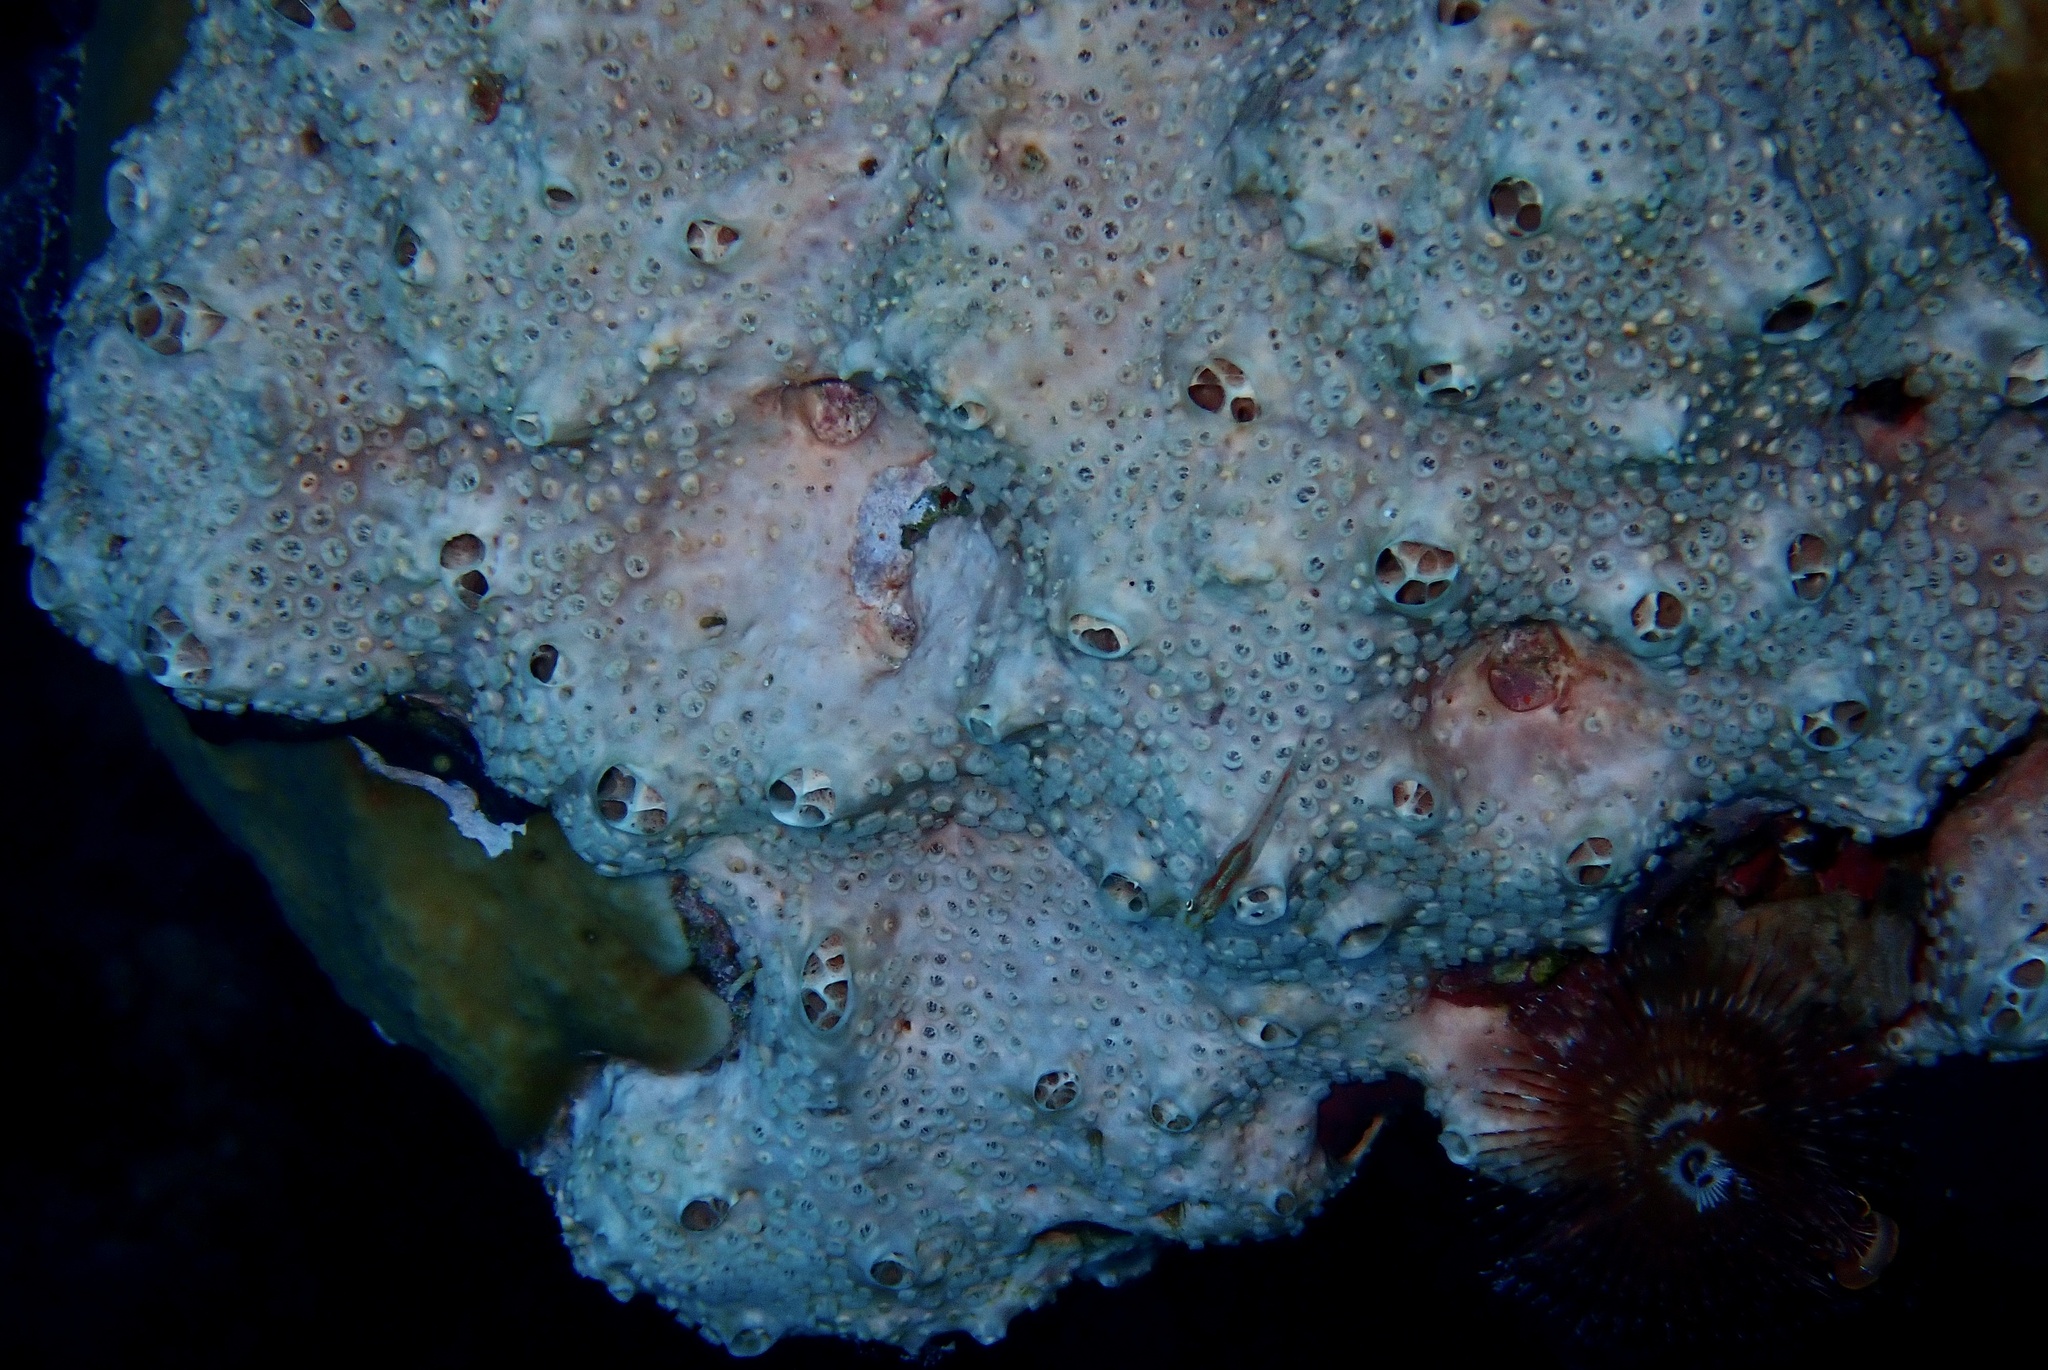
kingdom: Animalia
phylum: Porifera
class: Demospongiae
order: Poecilosclerida
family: Crellidae
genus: Crella
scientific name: Crella cyathophora
